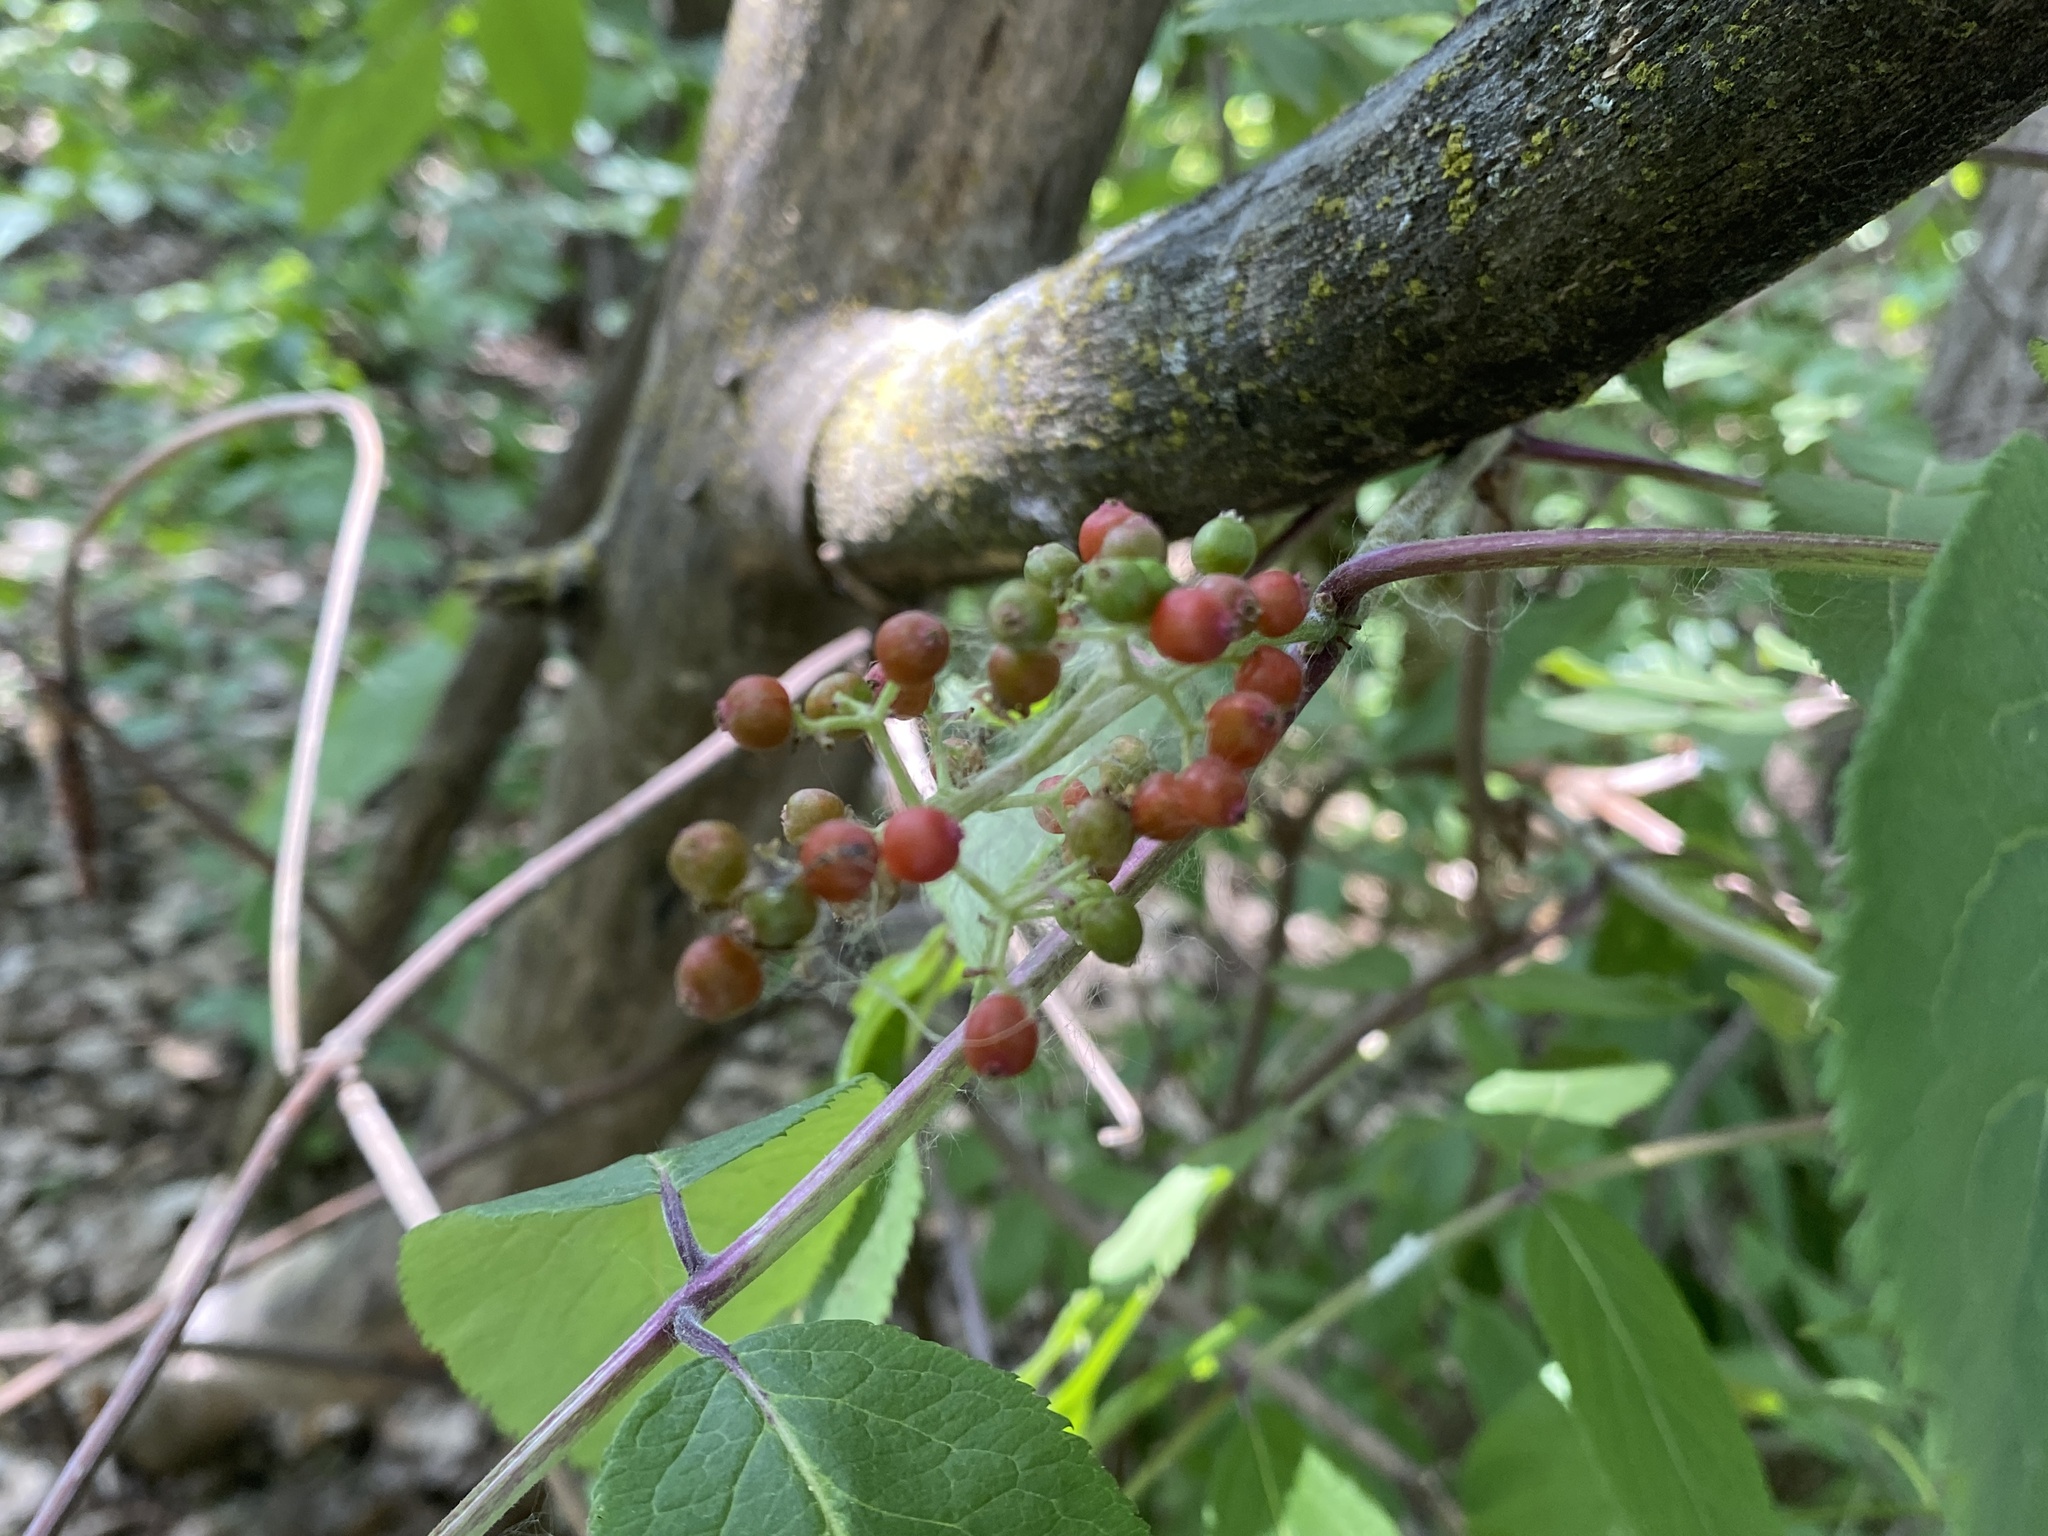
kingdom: Plantae
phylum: Tracheophyta
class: Magnoliopsida
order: Dipsacales
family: Viburnaceae
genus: Sambucus
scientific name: Sambucus racemosa
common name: Red-berried elder
